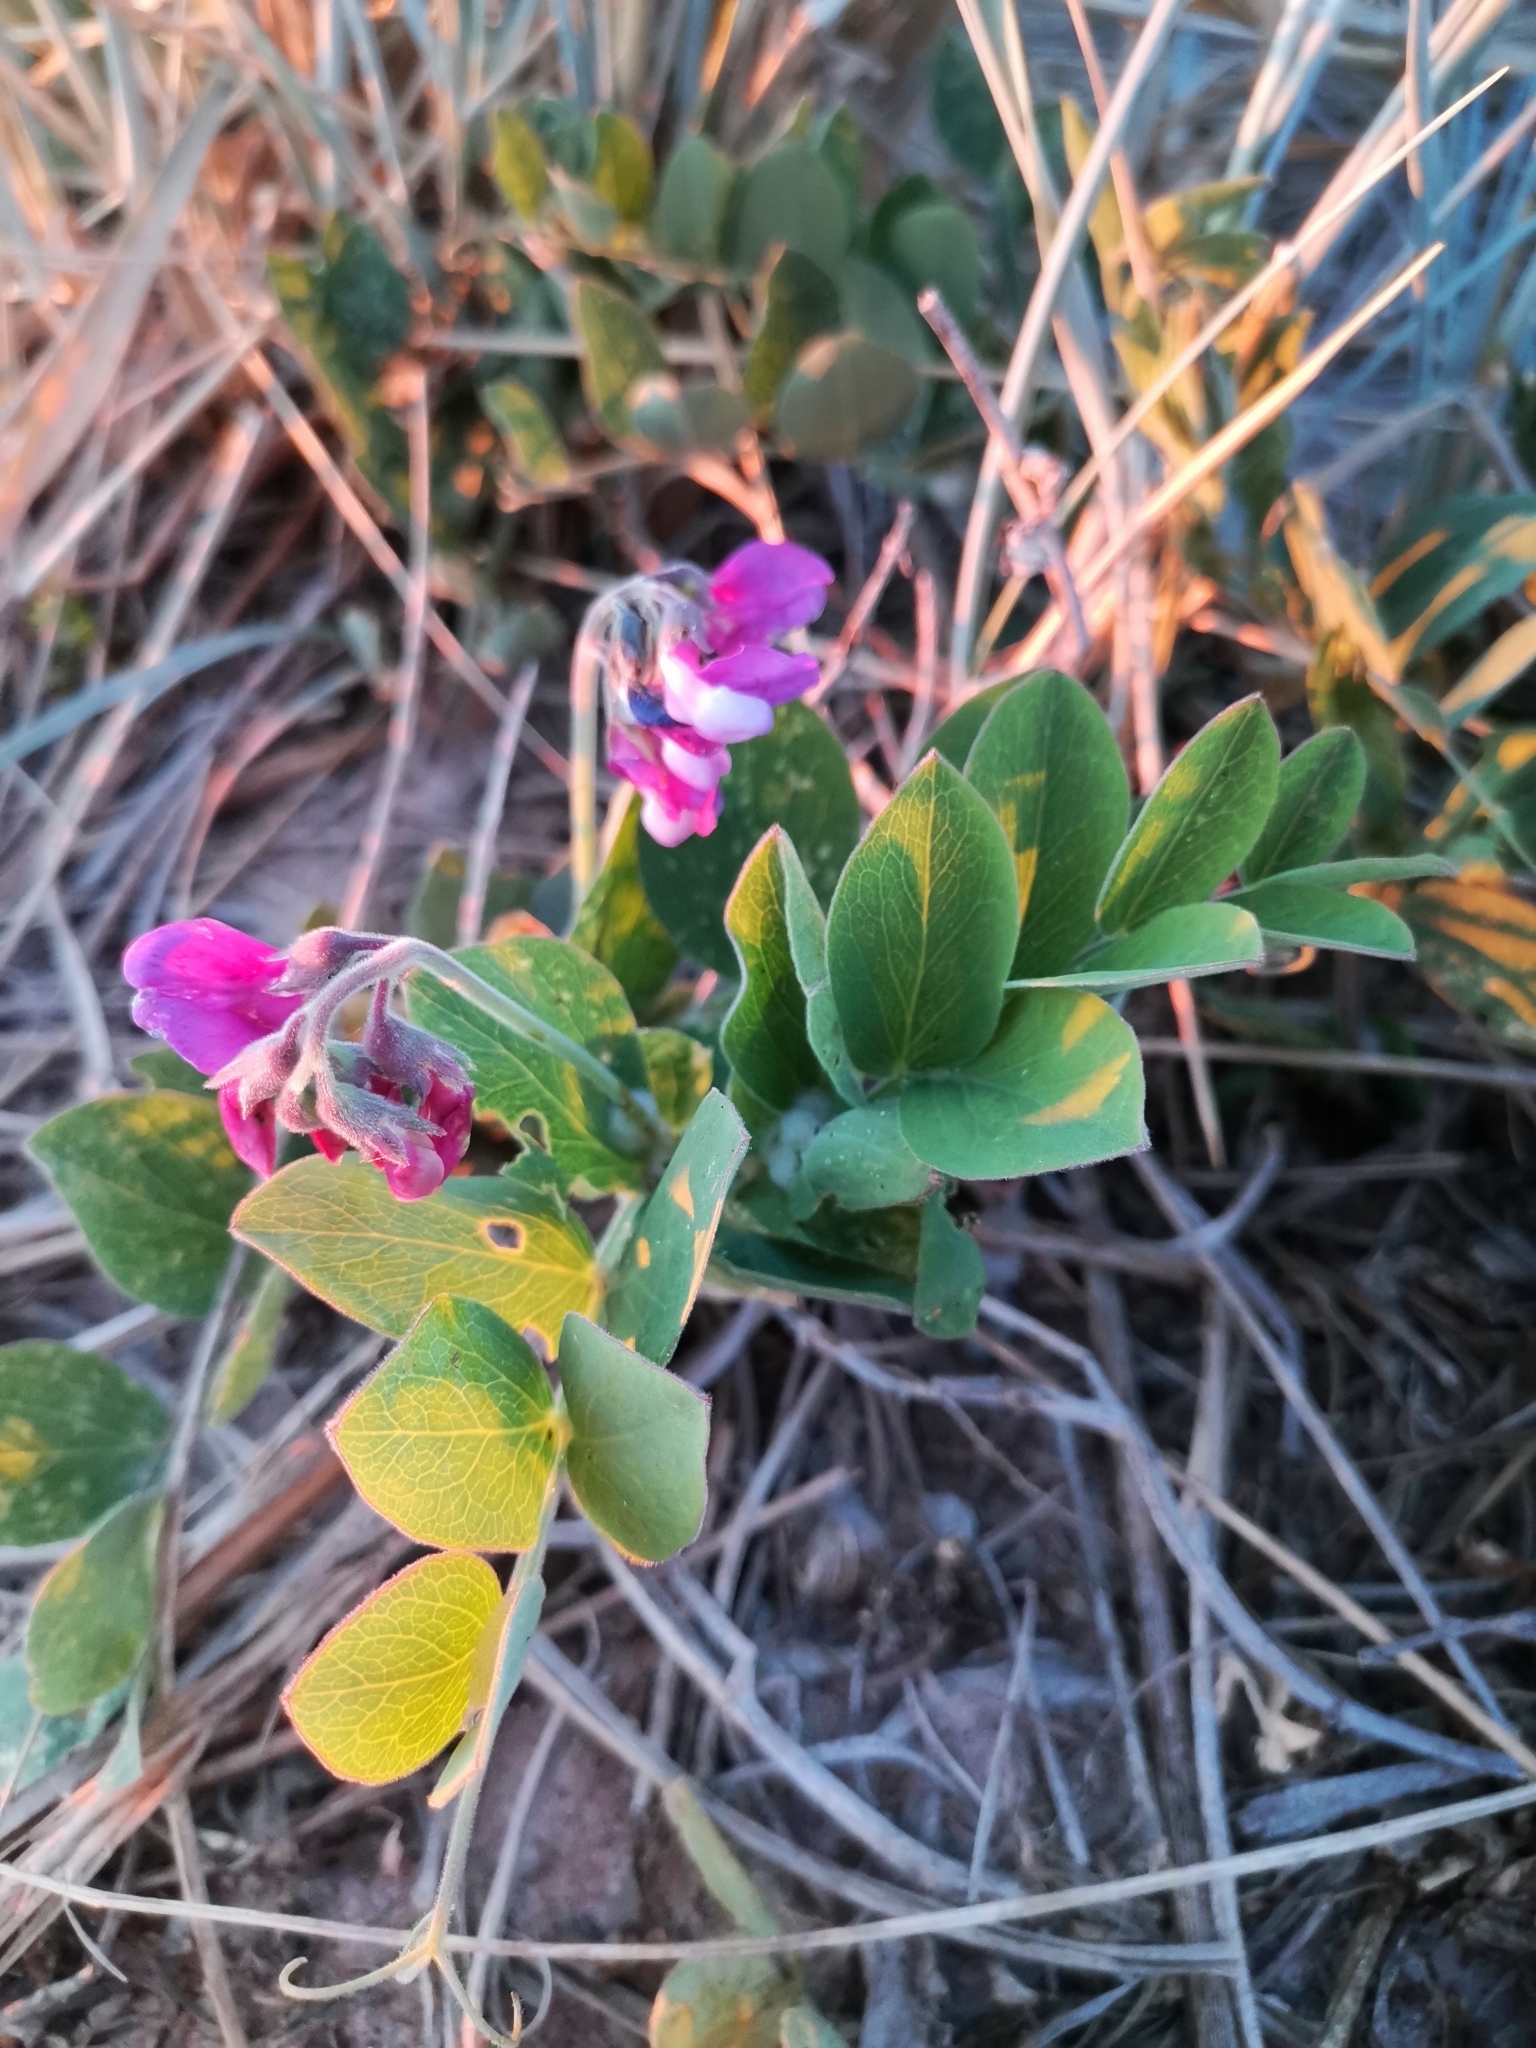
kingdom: Plantae
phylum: Tracheophyta
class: Magnoliopsida
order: Fabales
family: Fabaceae
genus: Lathyrus
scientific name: Lathyrus japonicus
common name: Sea pea
